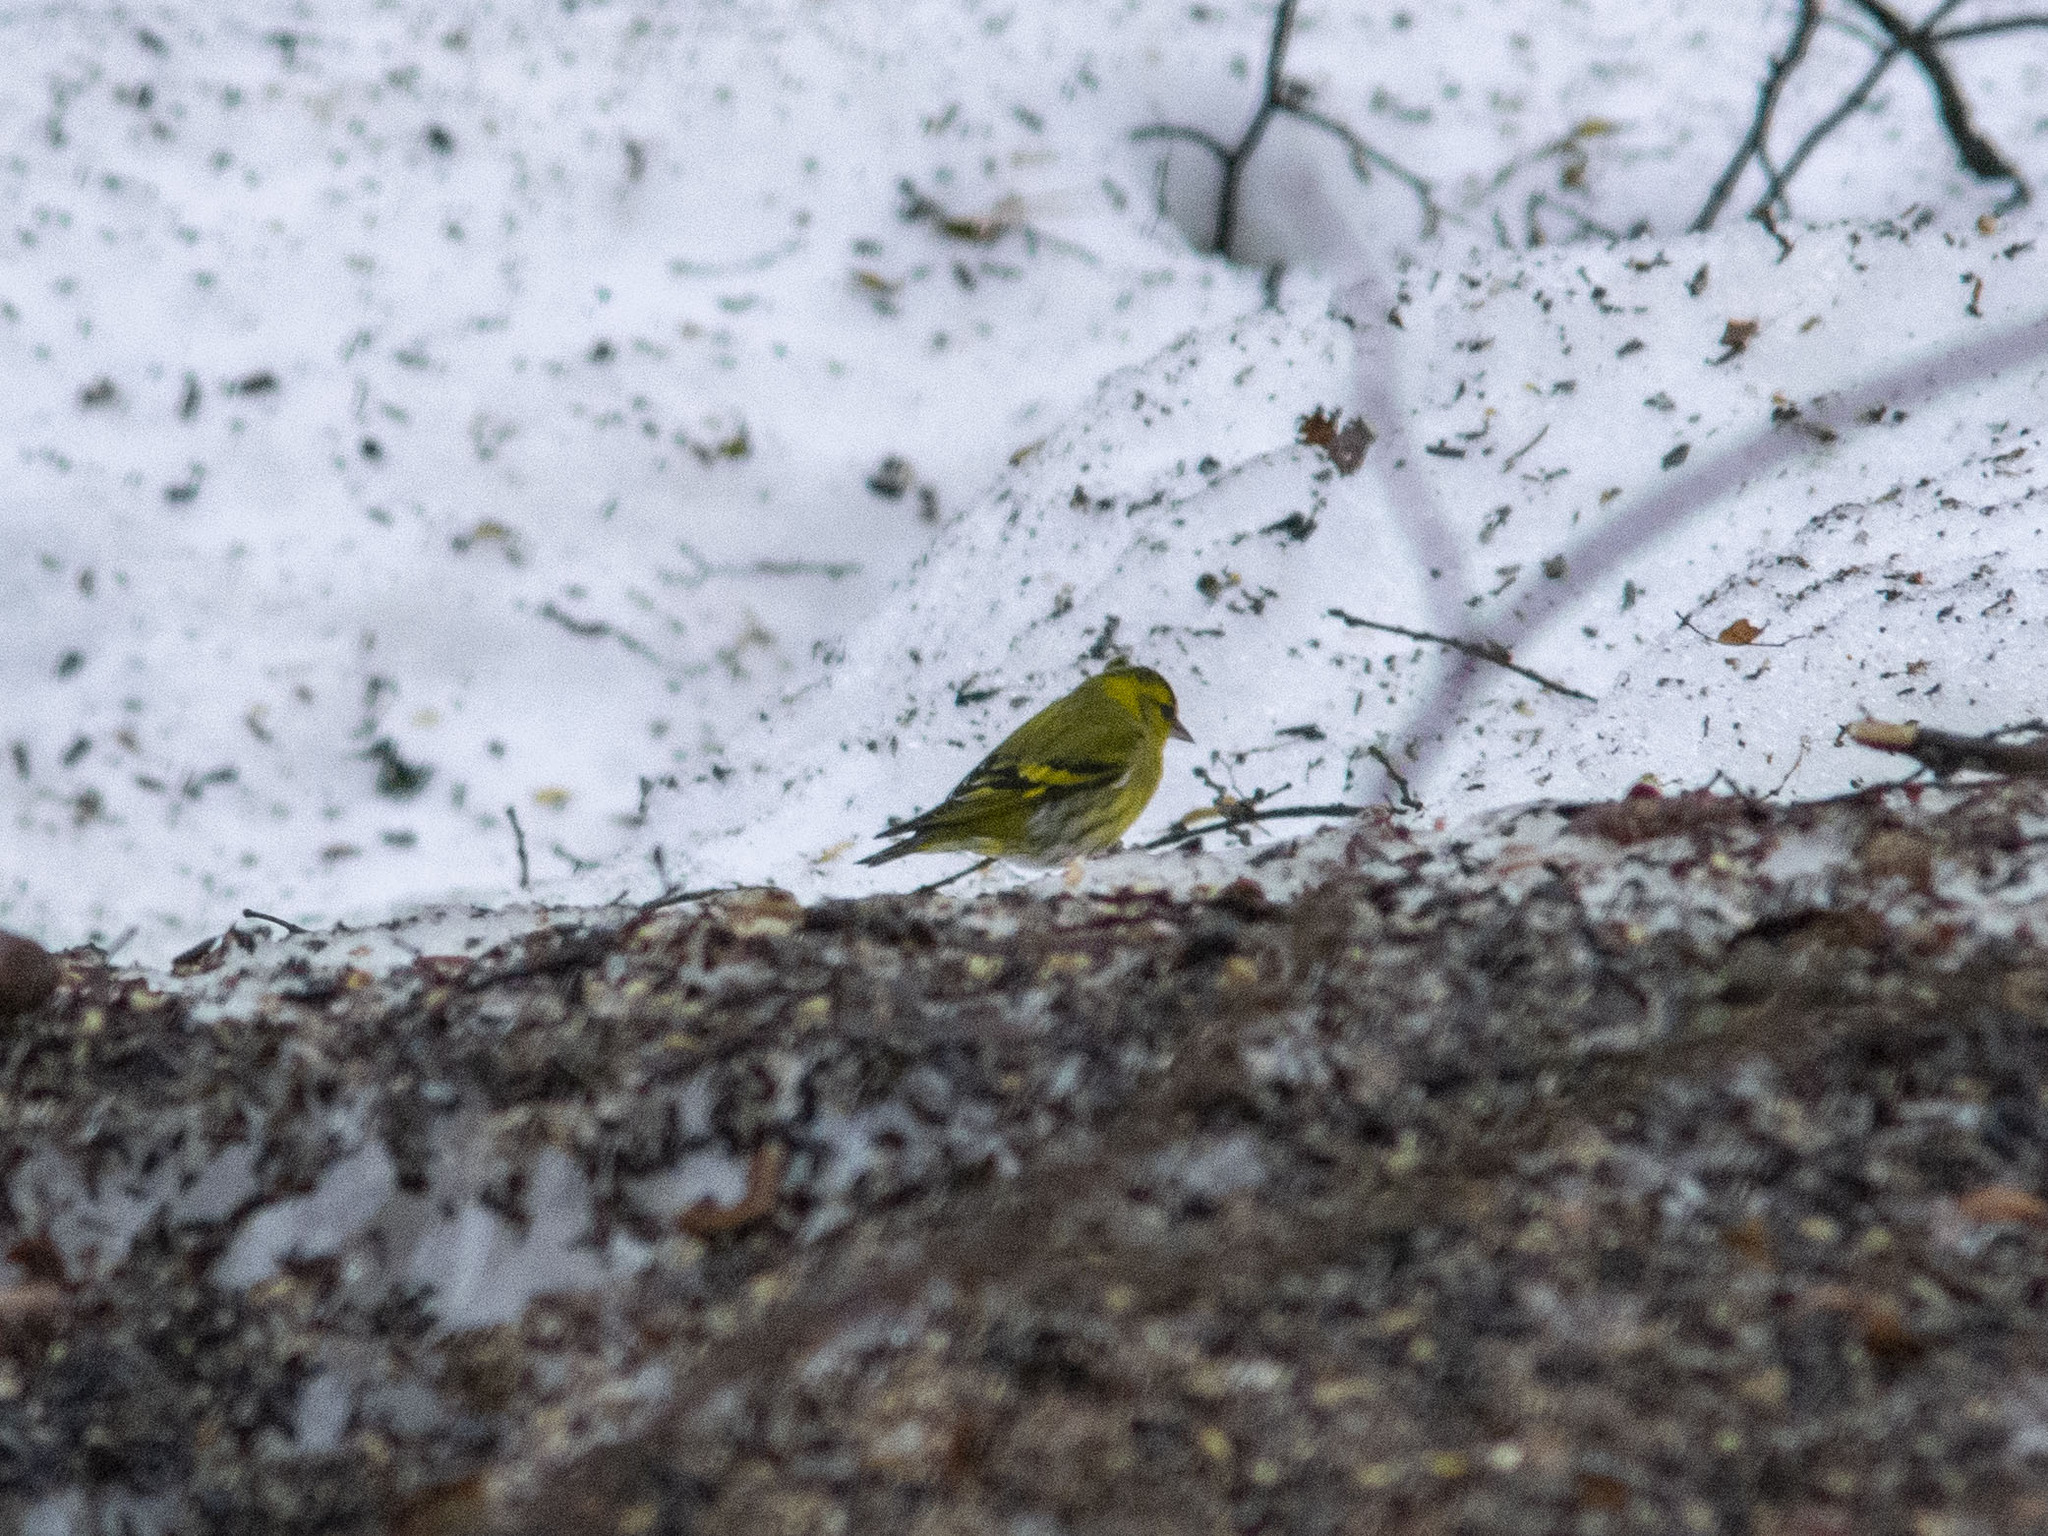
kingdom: Animalia
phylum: Chordata
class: Aves
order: Passeriformes
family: Fringillidae
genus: Spinus
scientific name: Spinus spinus
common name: Eurasian siskin
